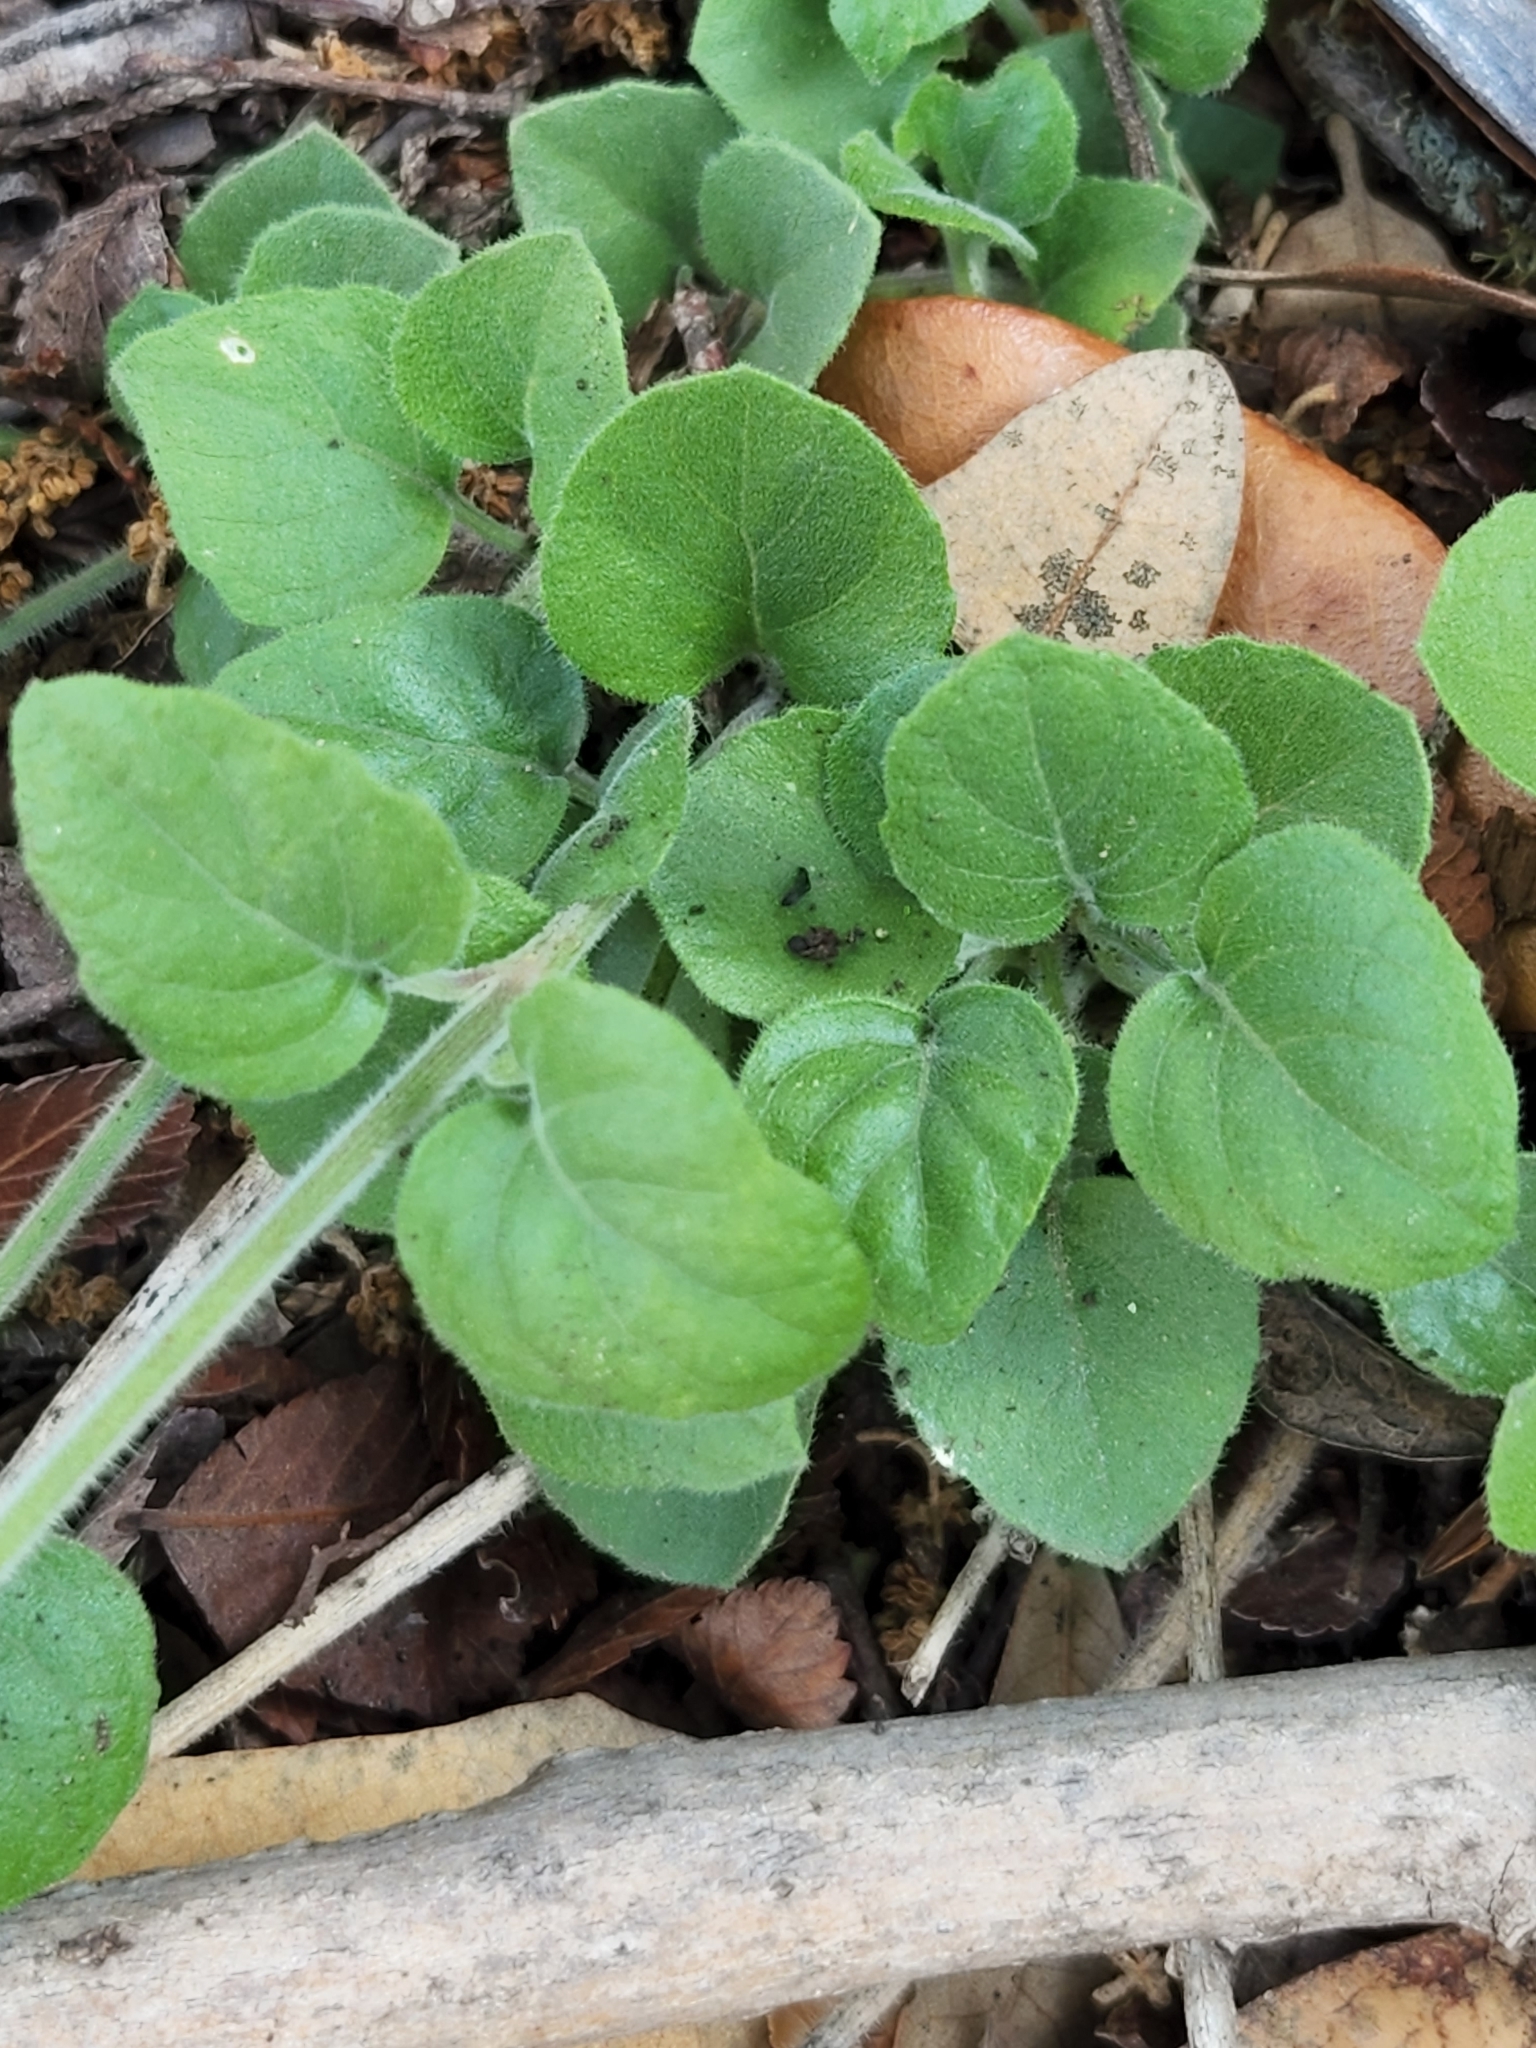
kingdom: Plantae
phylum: Tracheophyta
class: Magnoliopsida
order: Lamiales
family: Acanthaceae
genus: Carlowrightia
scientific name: Carlowrightia torreyana
